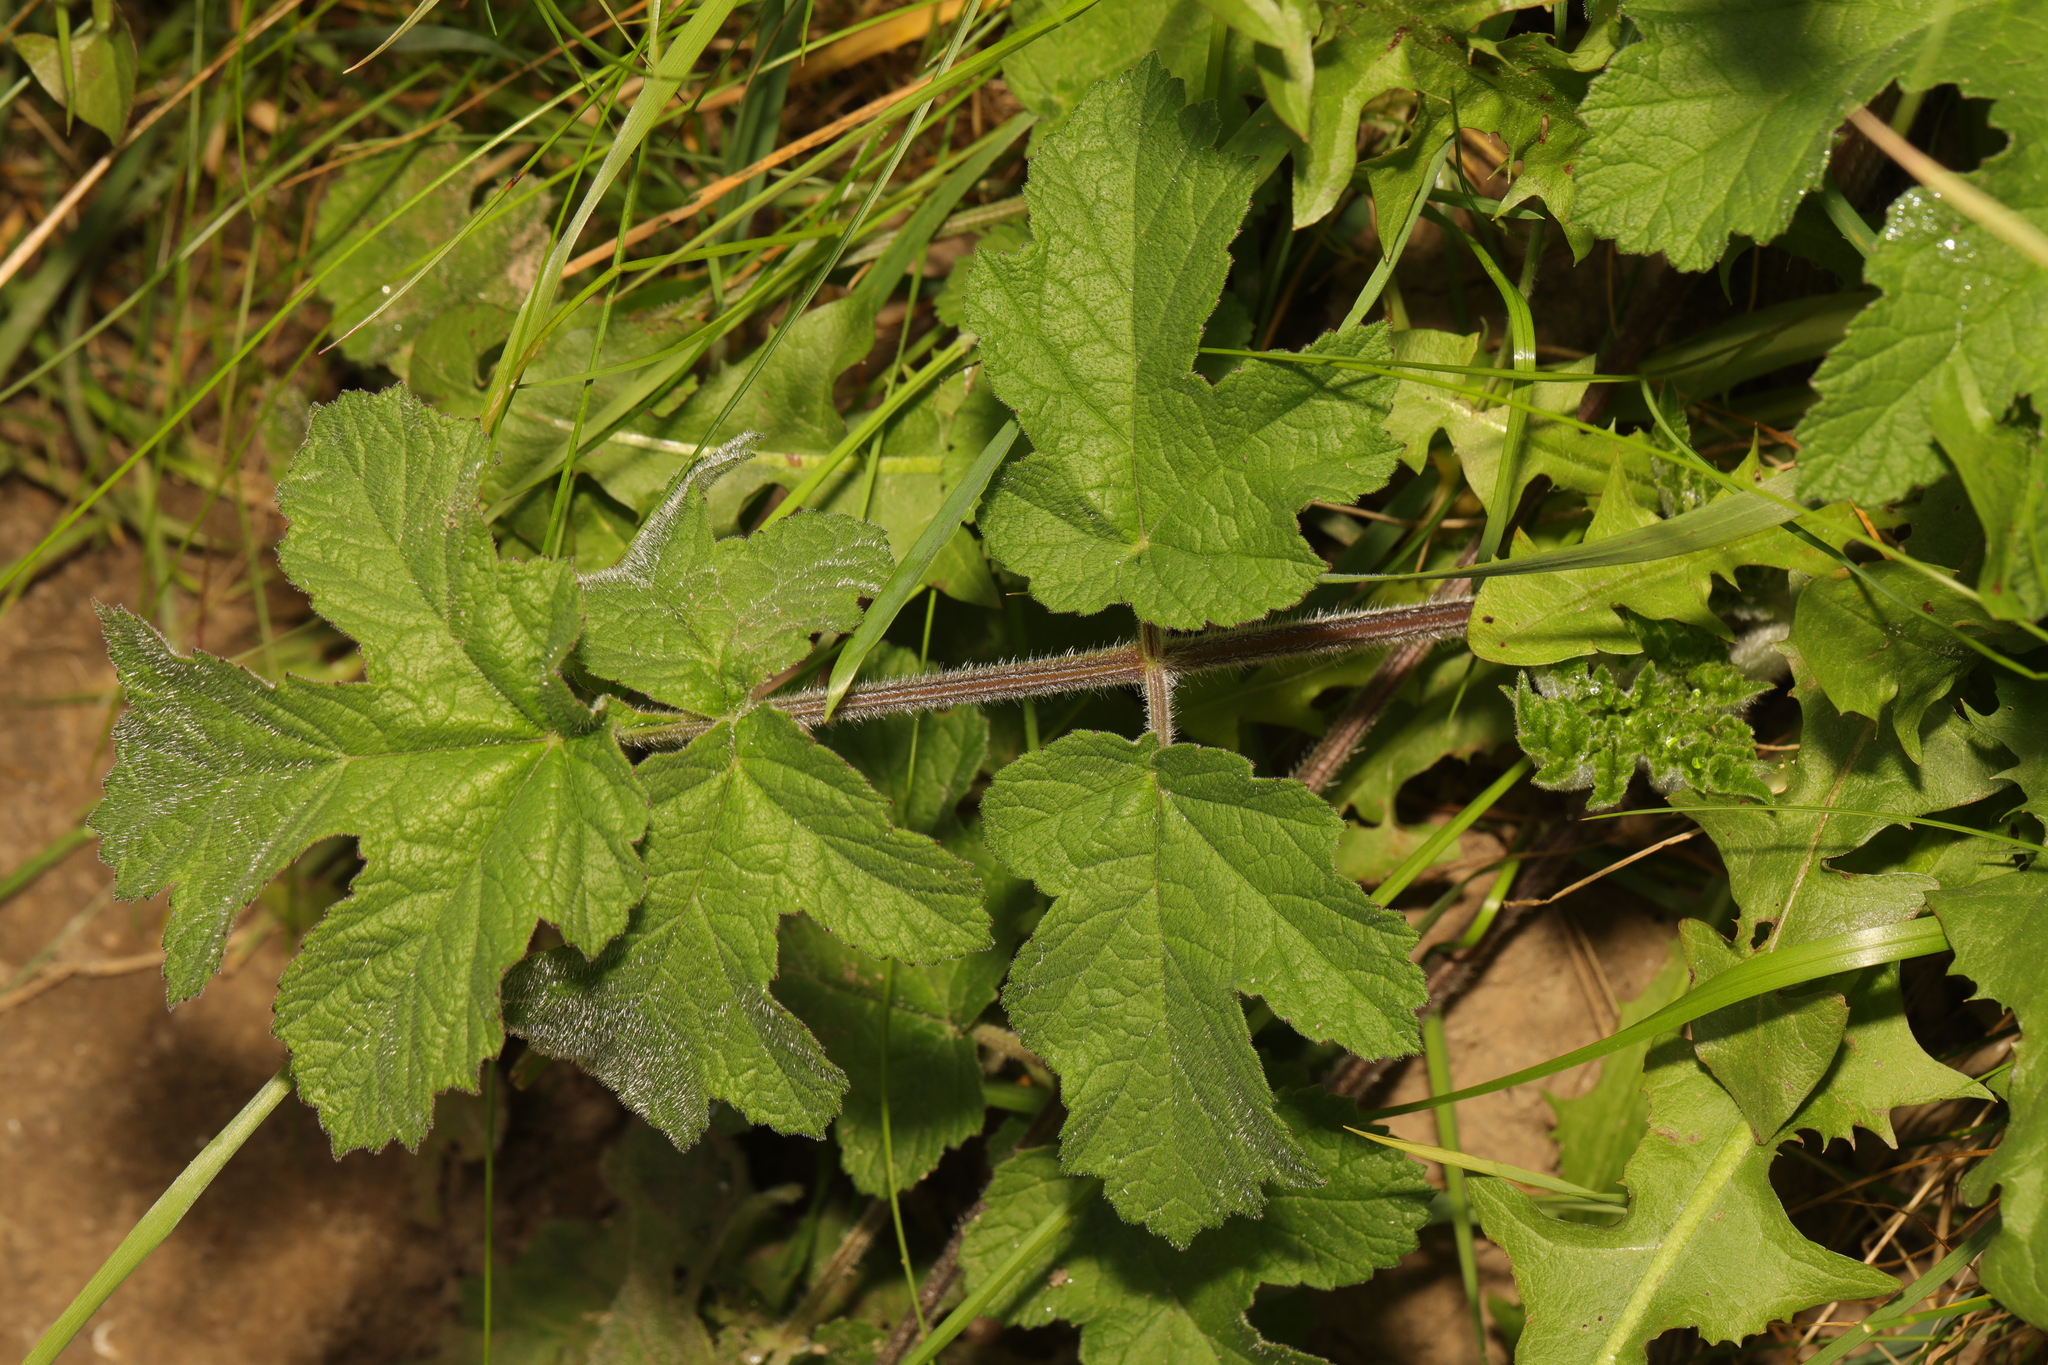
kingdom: Plantae
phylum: Tracheophyta
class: Magnoliopsida
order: Apiales
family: Apiaceae
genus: Heracleum
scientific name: Heracleum sphondylium
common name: Hogweed
